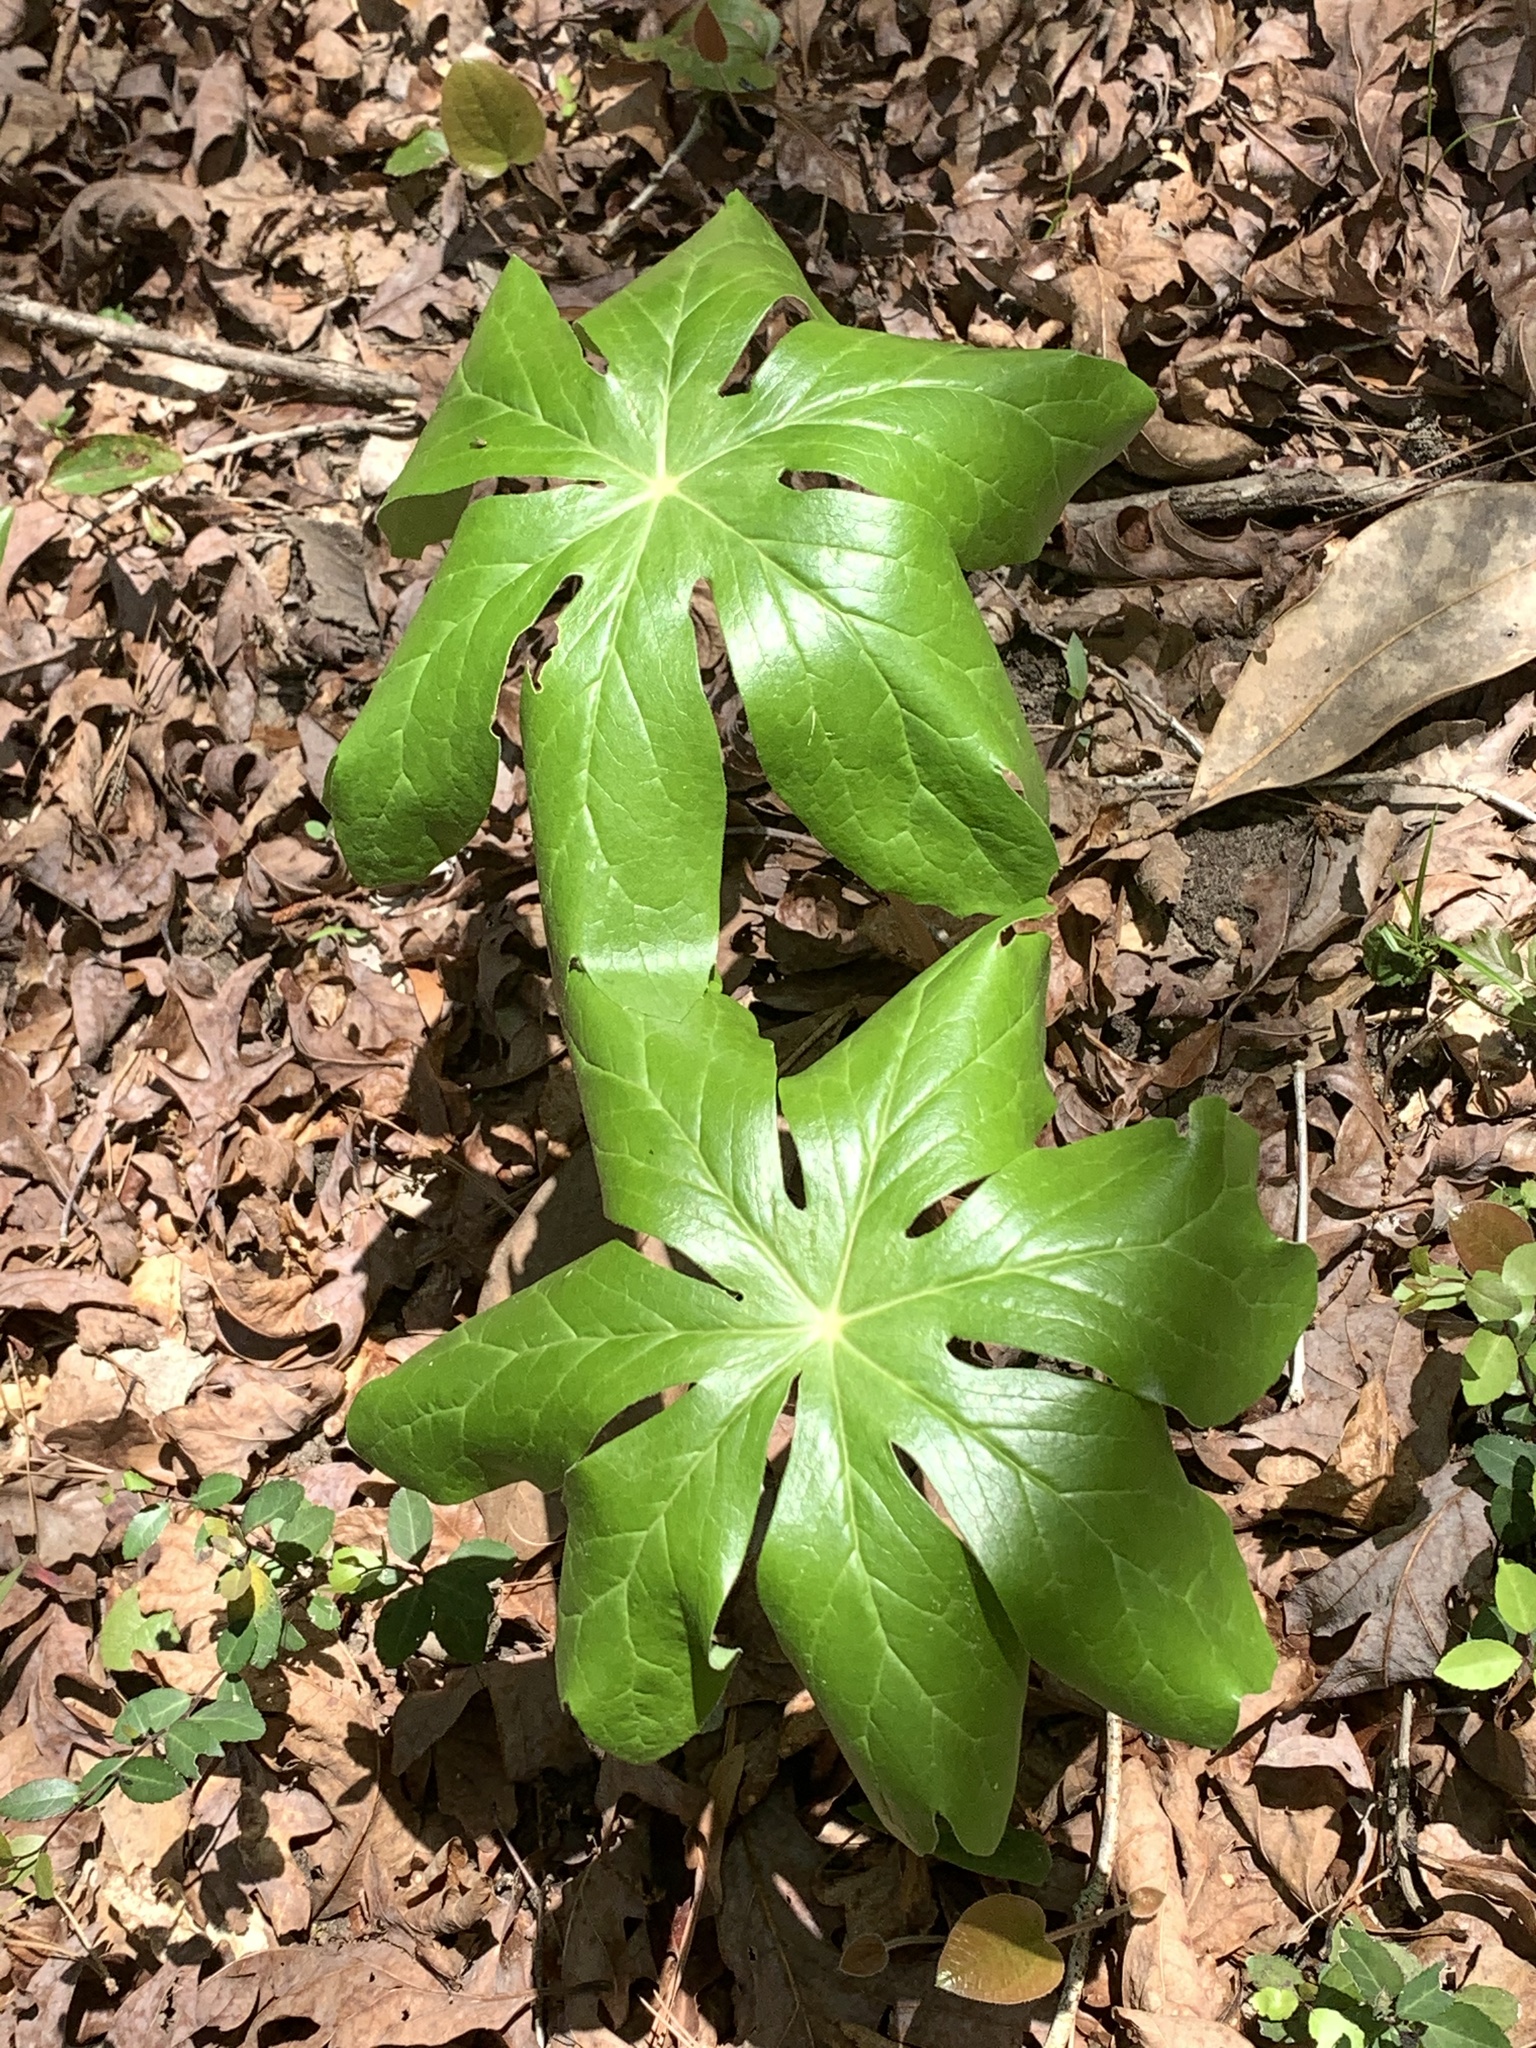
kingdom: Plantae
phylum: Tracheophyta
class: Magnoliopsida
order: Ranunculales
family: Berberidaceae
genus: Podophyllum
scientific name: Podophyllum peltatum
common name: Wild mandrake
